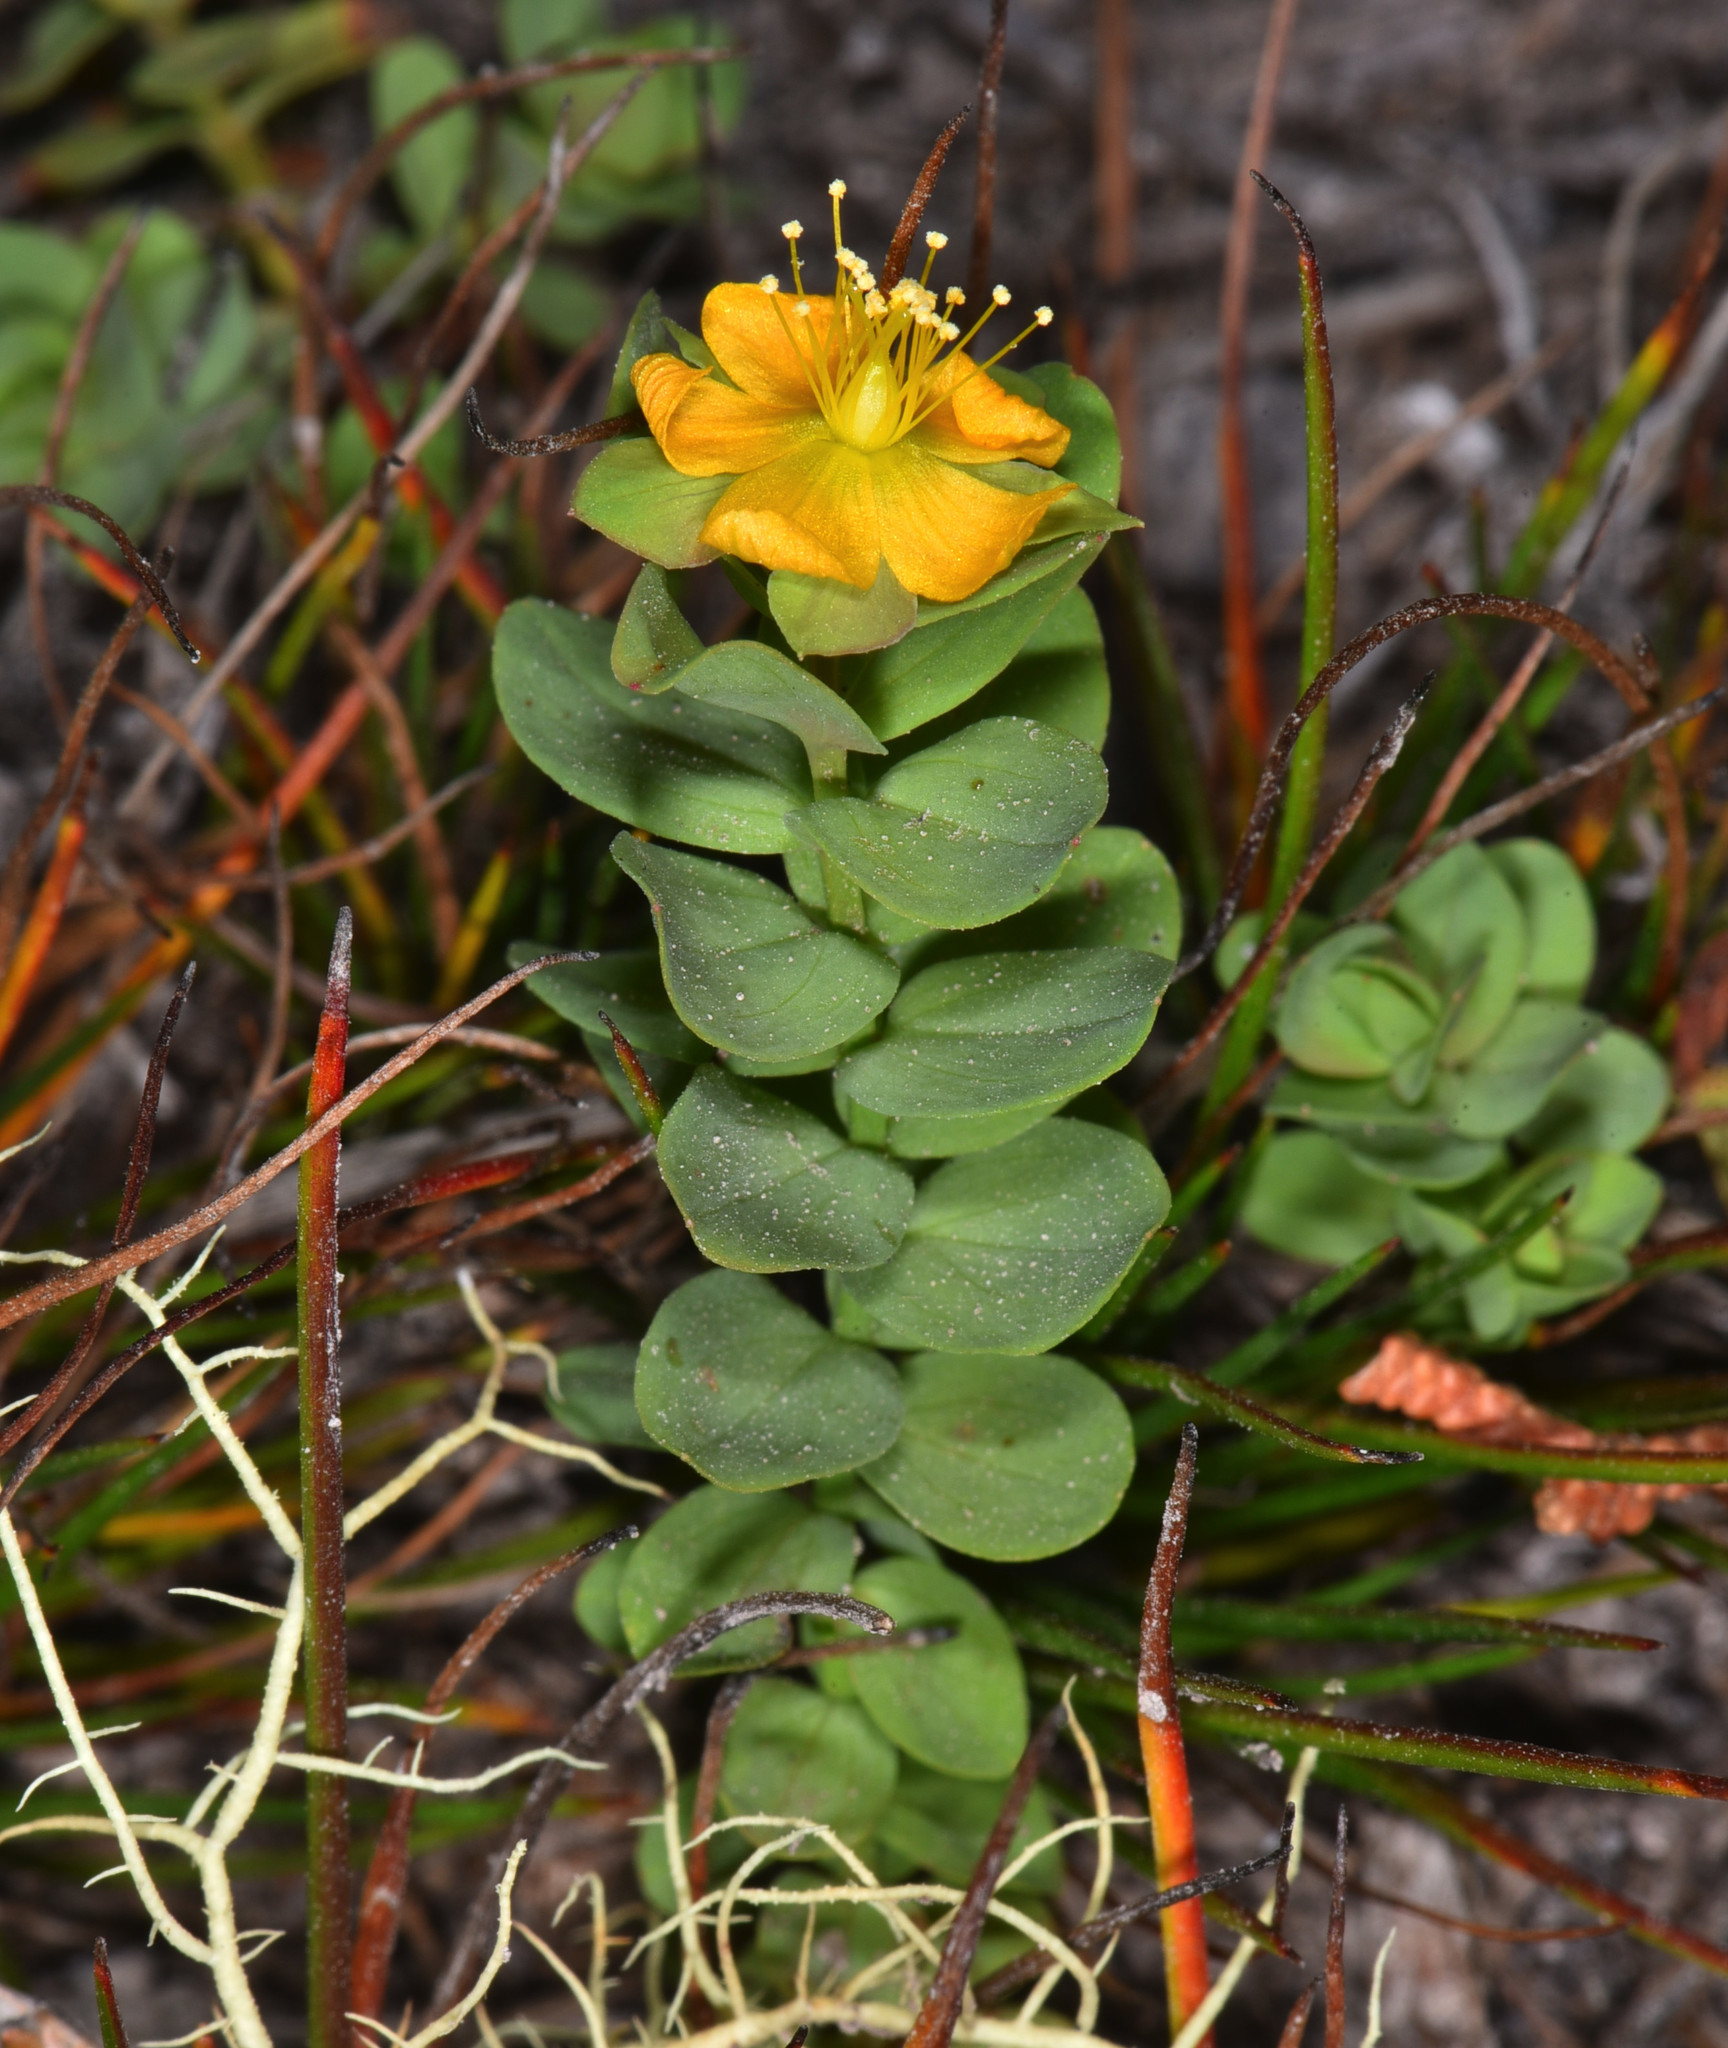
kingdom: Plantae
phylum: Tracheophyta
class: Magnoliopsida
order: Malpighiales
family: Hypericaceae
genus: Hypericum
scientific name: Hypericum anagalloides
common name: Bog st. john's-wort
